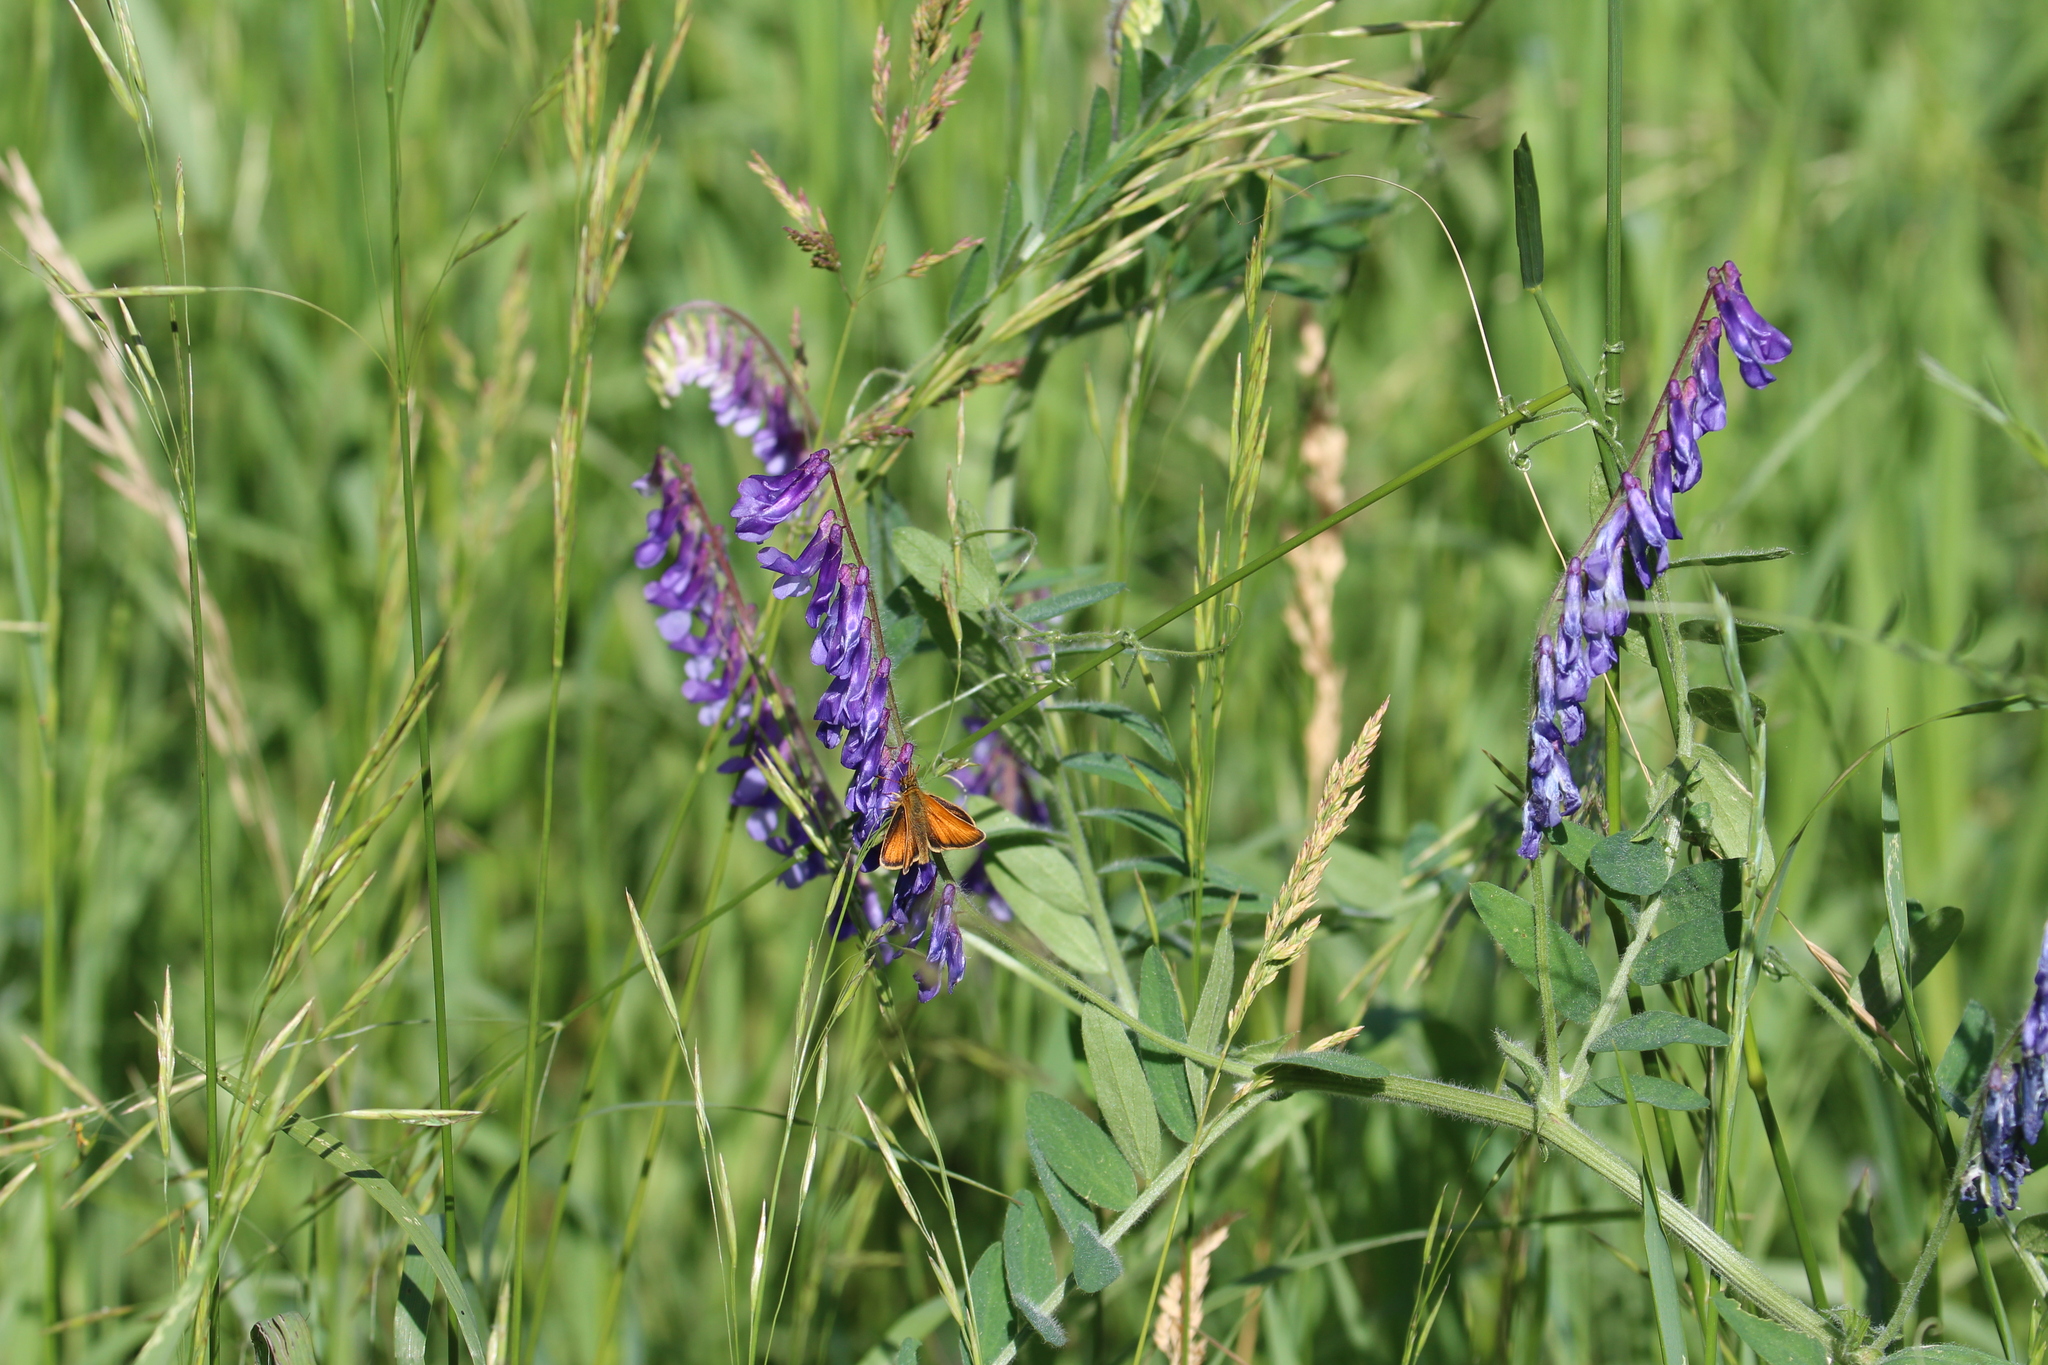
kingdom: Plantae
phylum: Tracheophyta
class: Magnoliopsida
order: Fabales
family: Fabaceae
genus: Vicia
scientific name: Vicia villosa
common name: Fodder vetch
